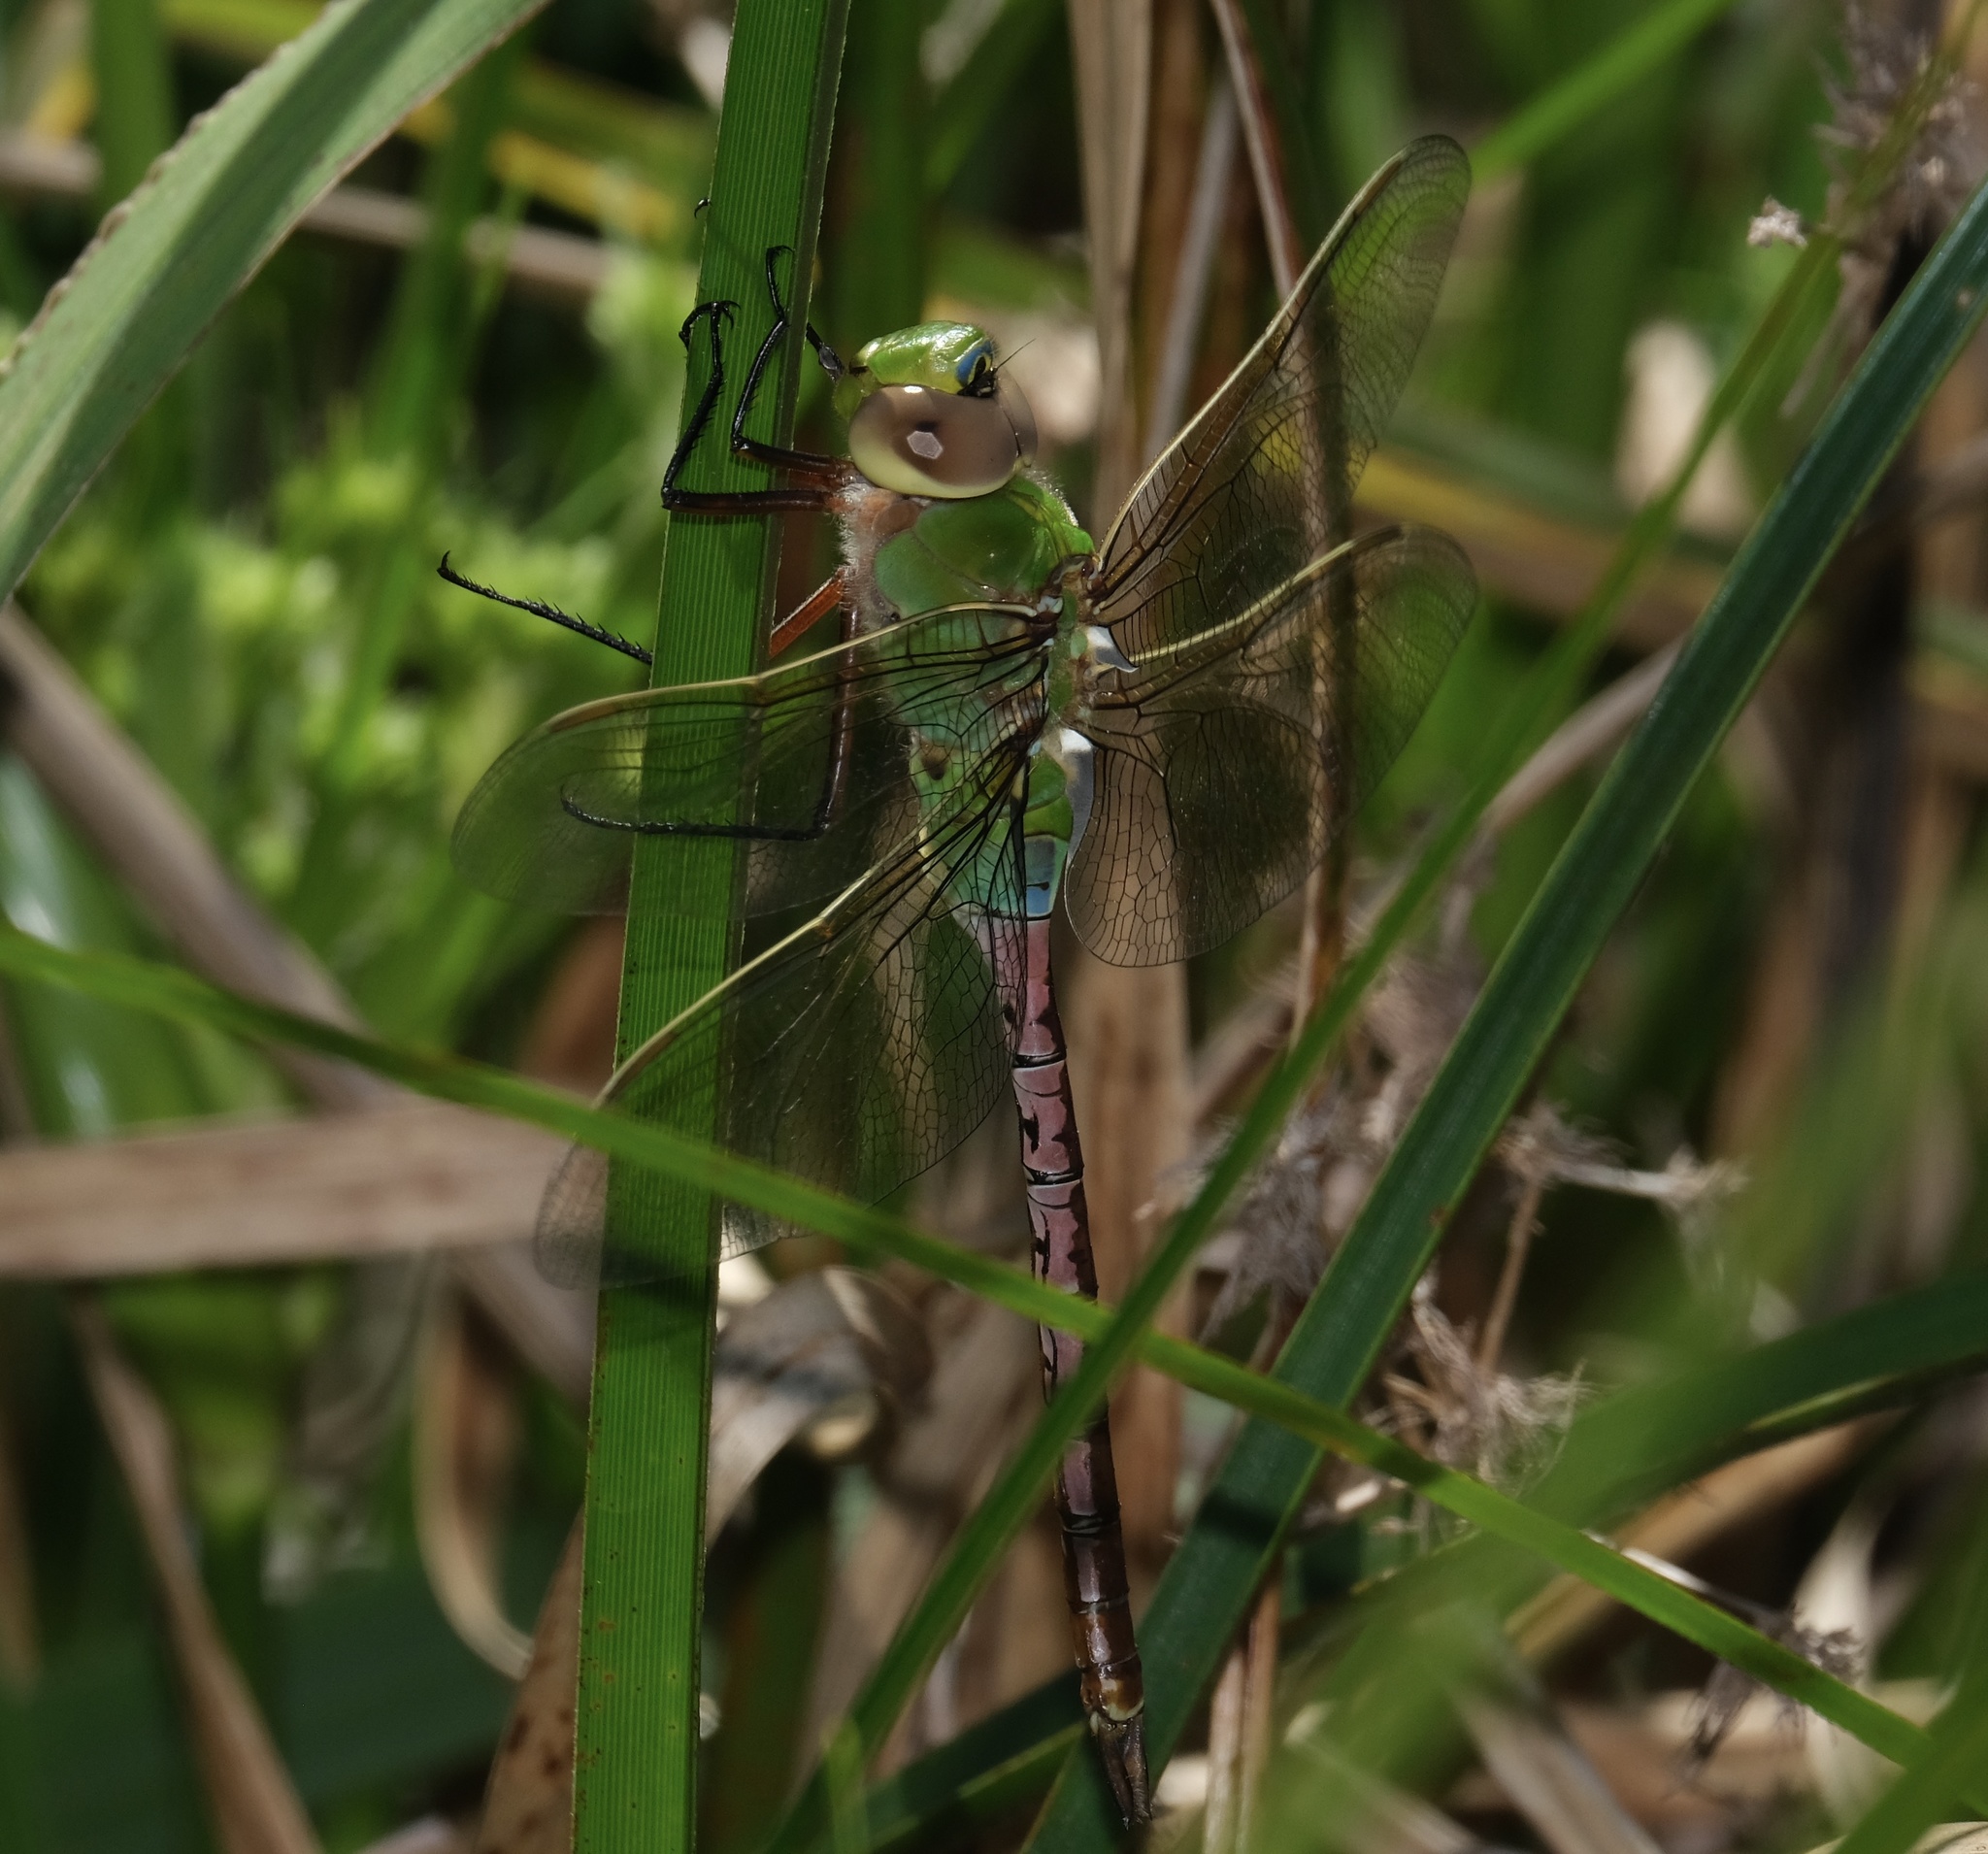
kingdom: Animalia
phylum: Arthropoda
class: Insecta
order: Odonata
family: Aeshnidae
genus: Anax
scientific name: Anax junius
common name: Common green darner
